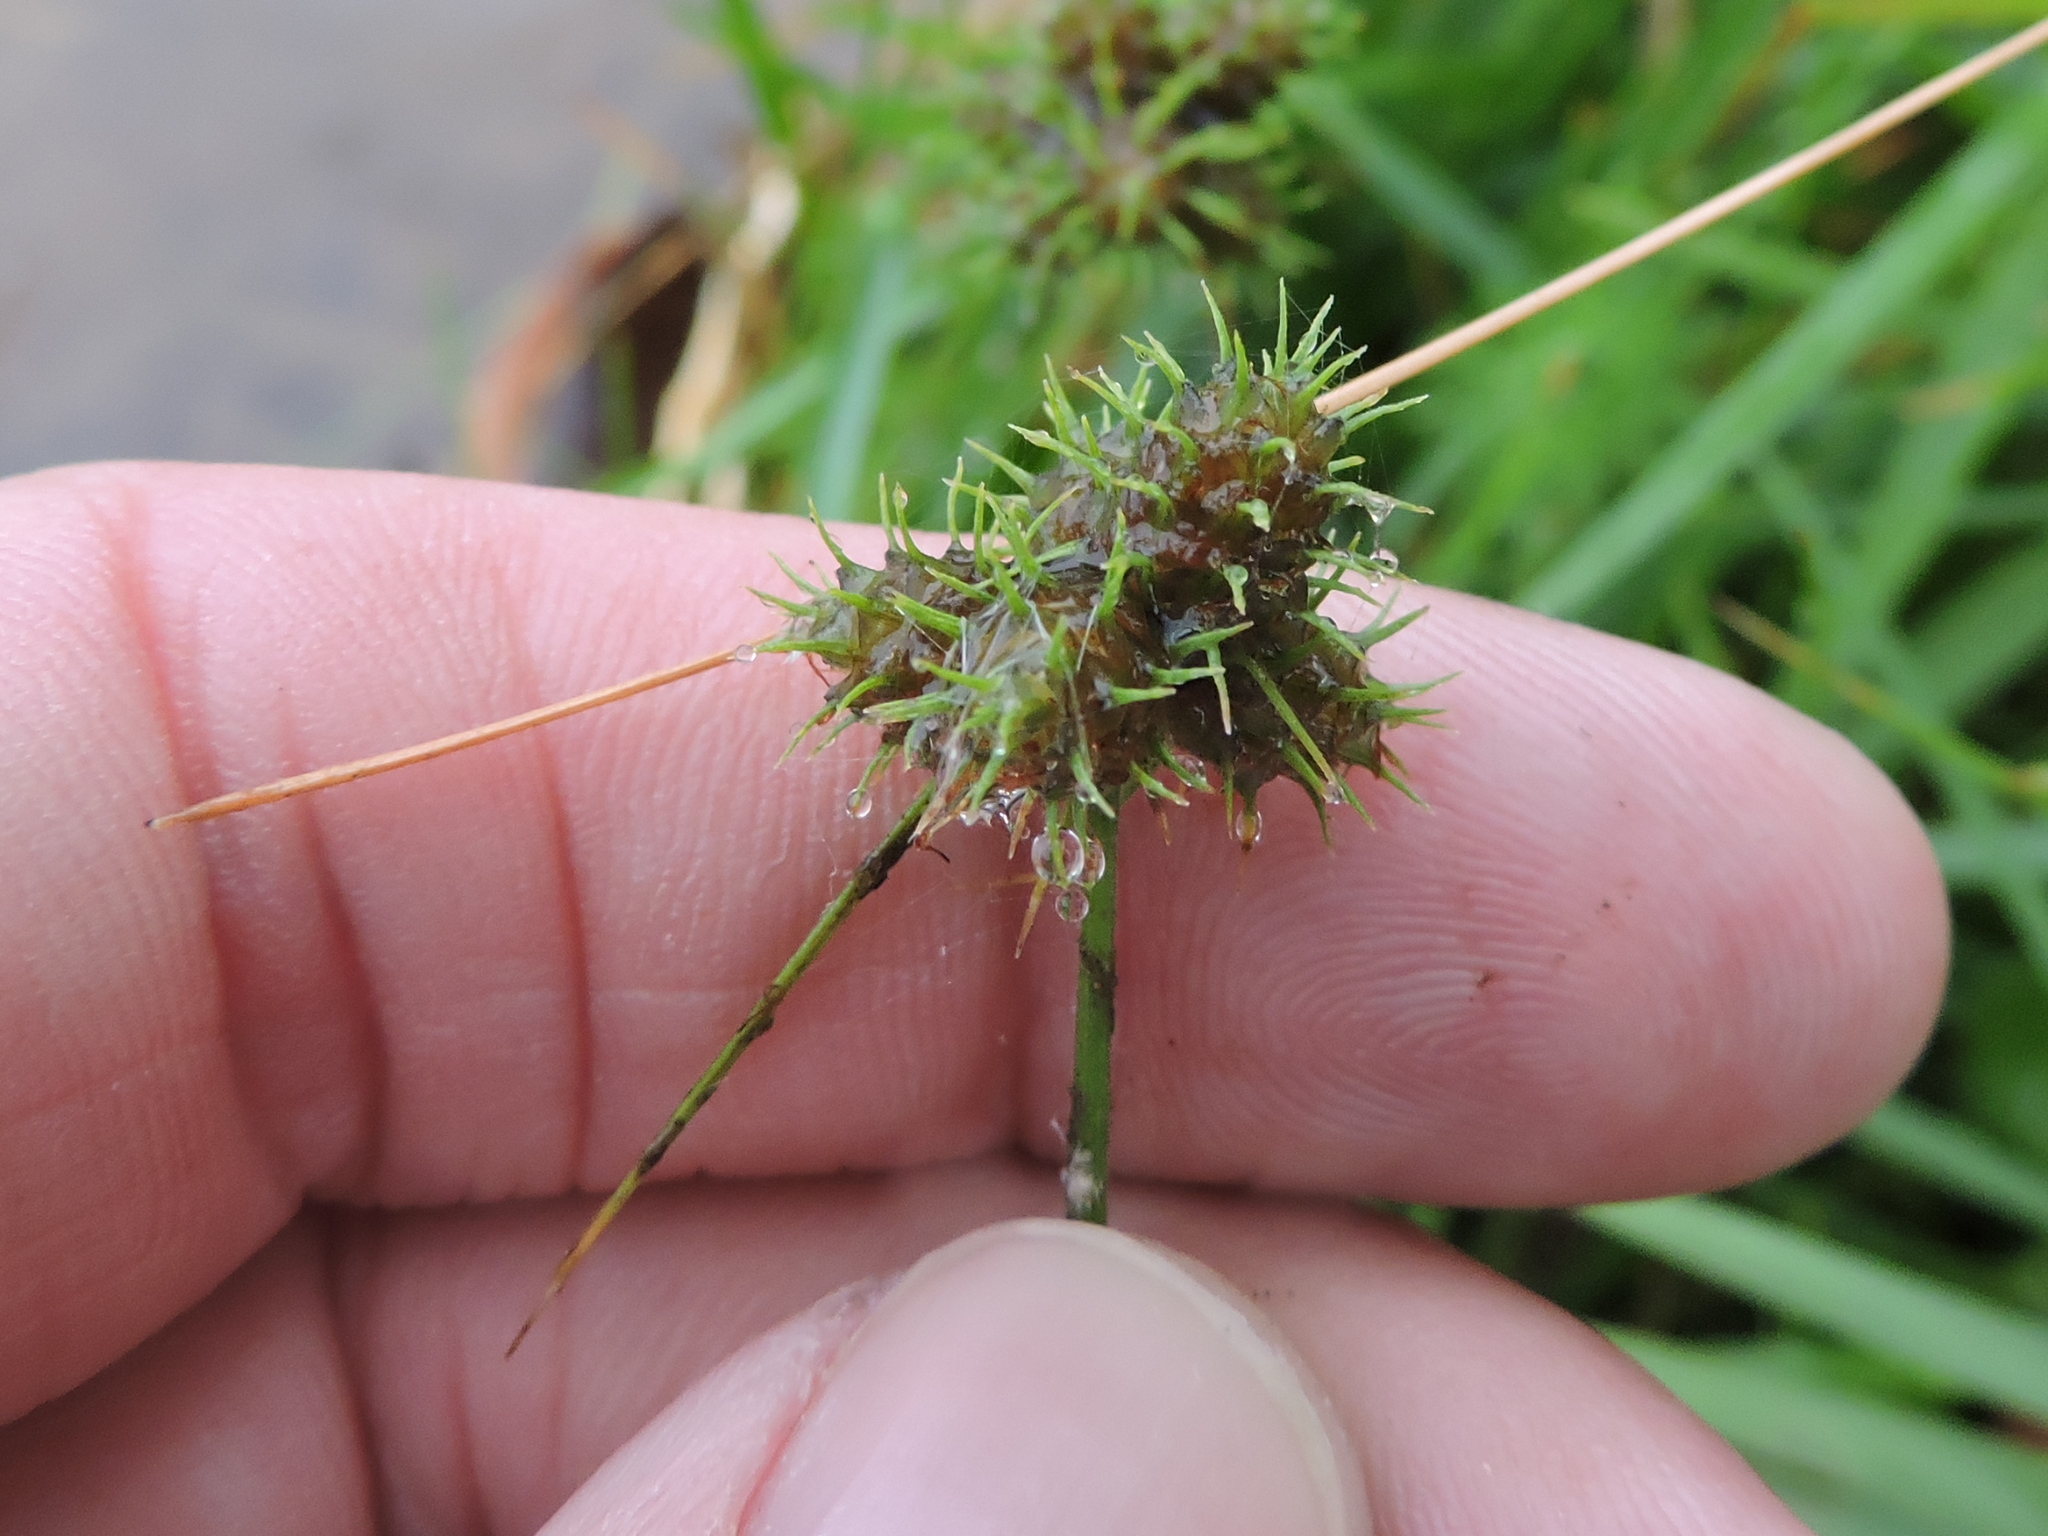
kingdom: Plantae
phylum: Tracheophyta
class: Liliopsida
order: Poales
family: Cyperaceae
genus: Fuirena
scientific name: Fuirena simplex
